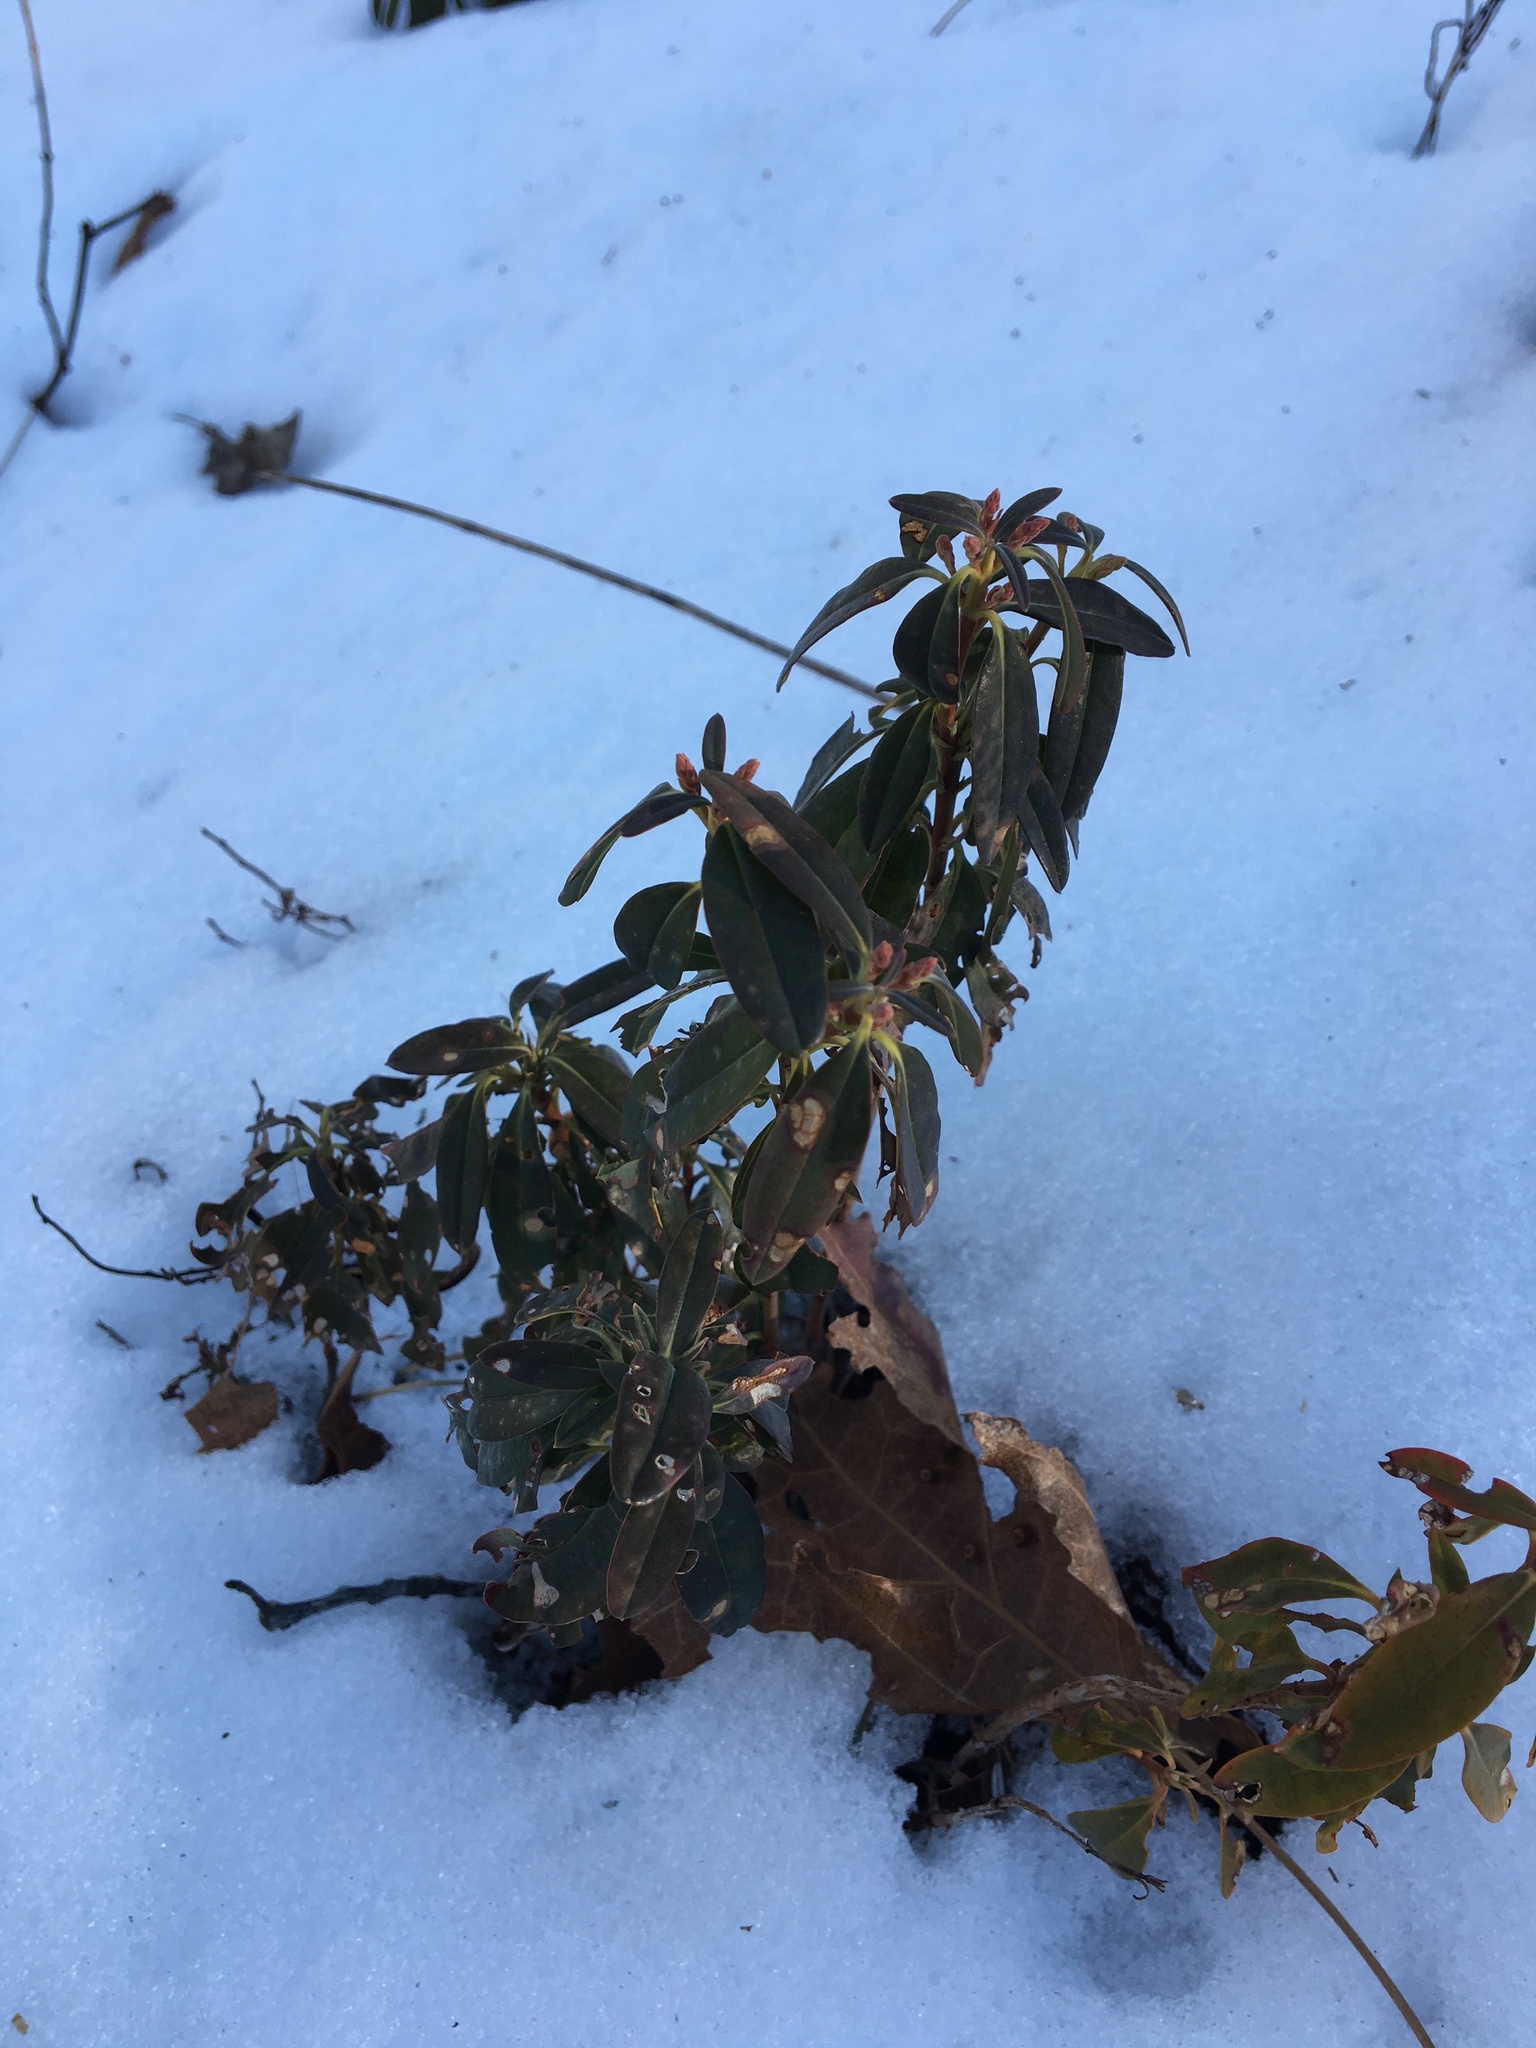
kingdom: Plantae
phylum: Tracheophyta
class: Magnoliopsida
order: Ericales
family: Ericaceae
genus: Kalmia
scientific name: Kalmia angustifolia
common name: Sheep-laurel
